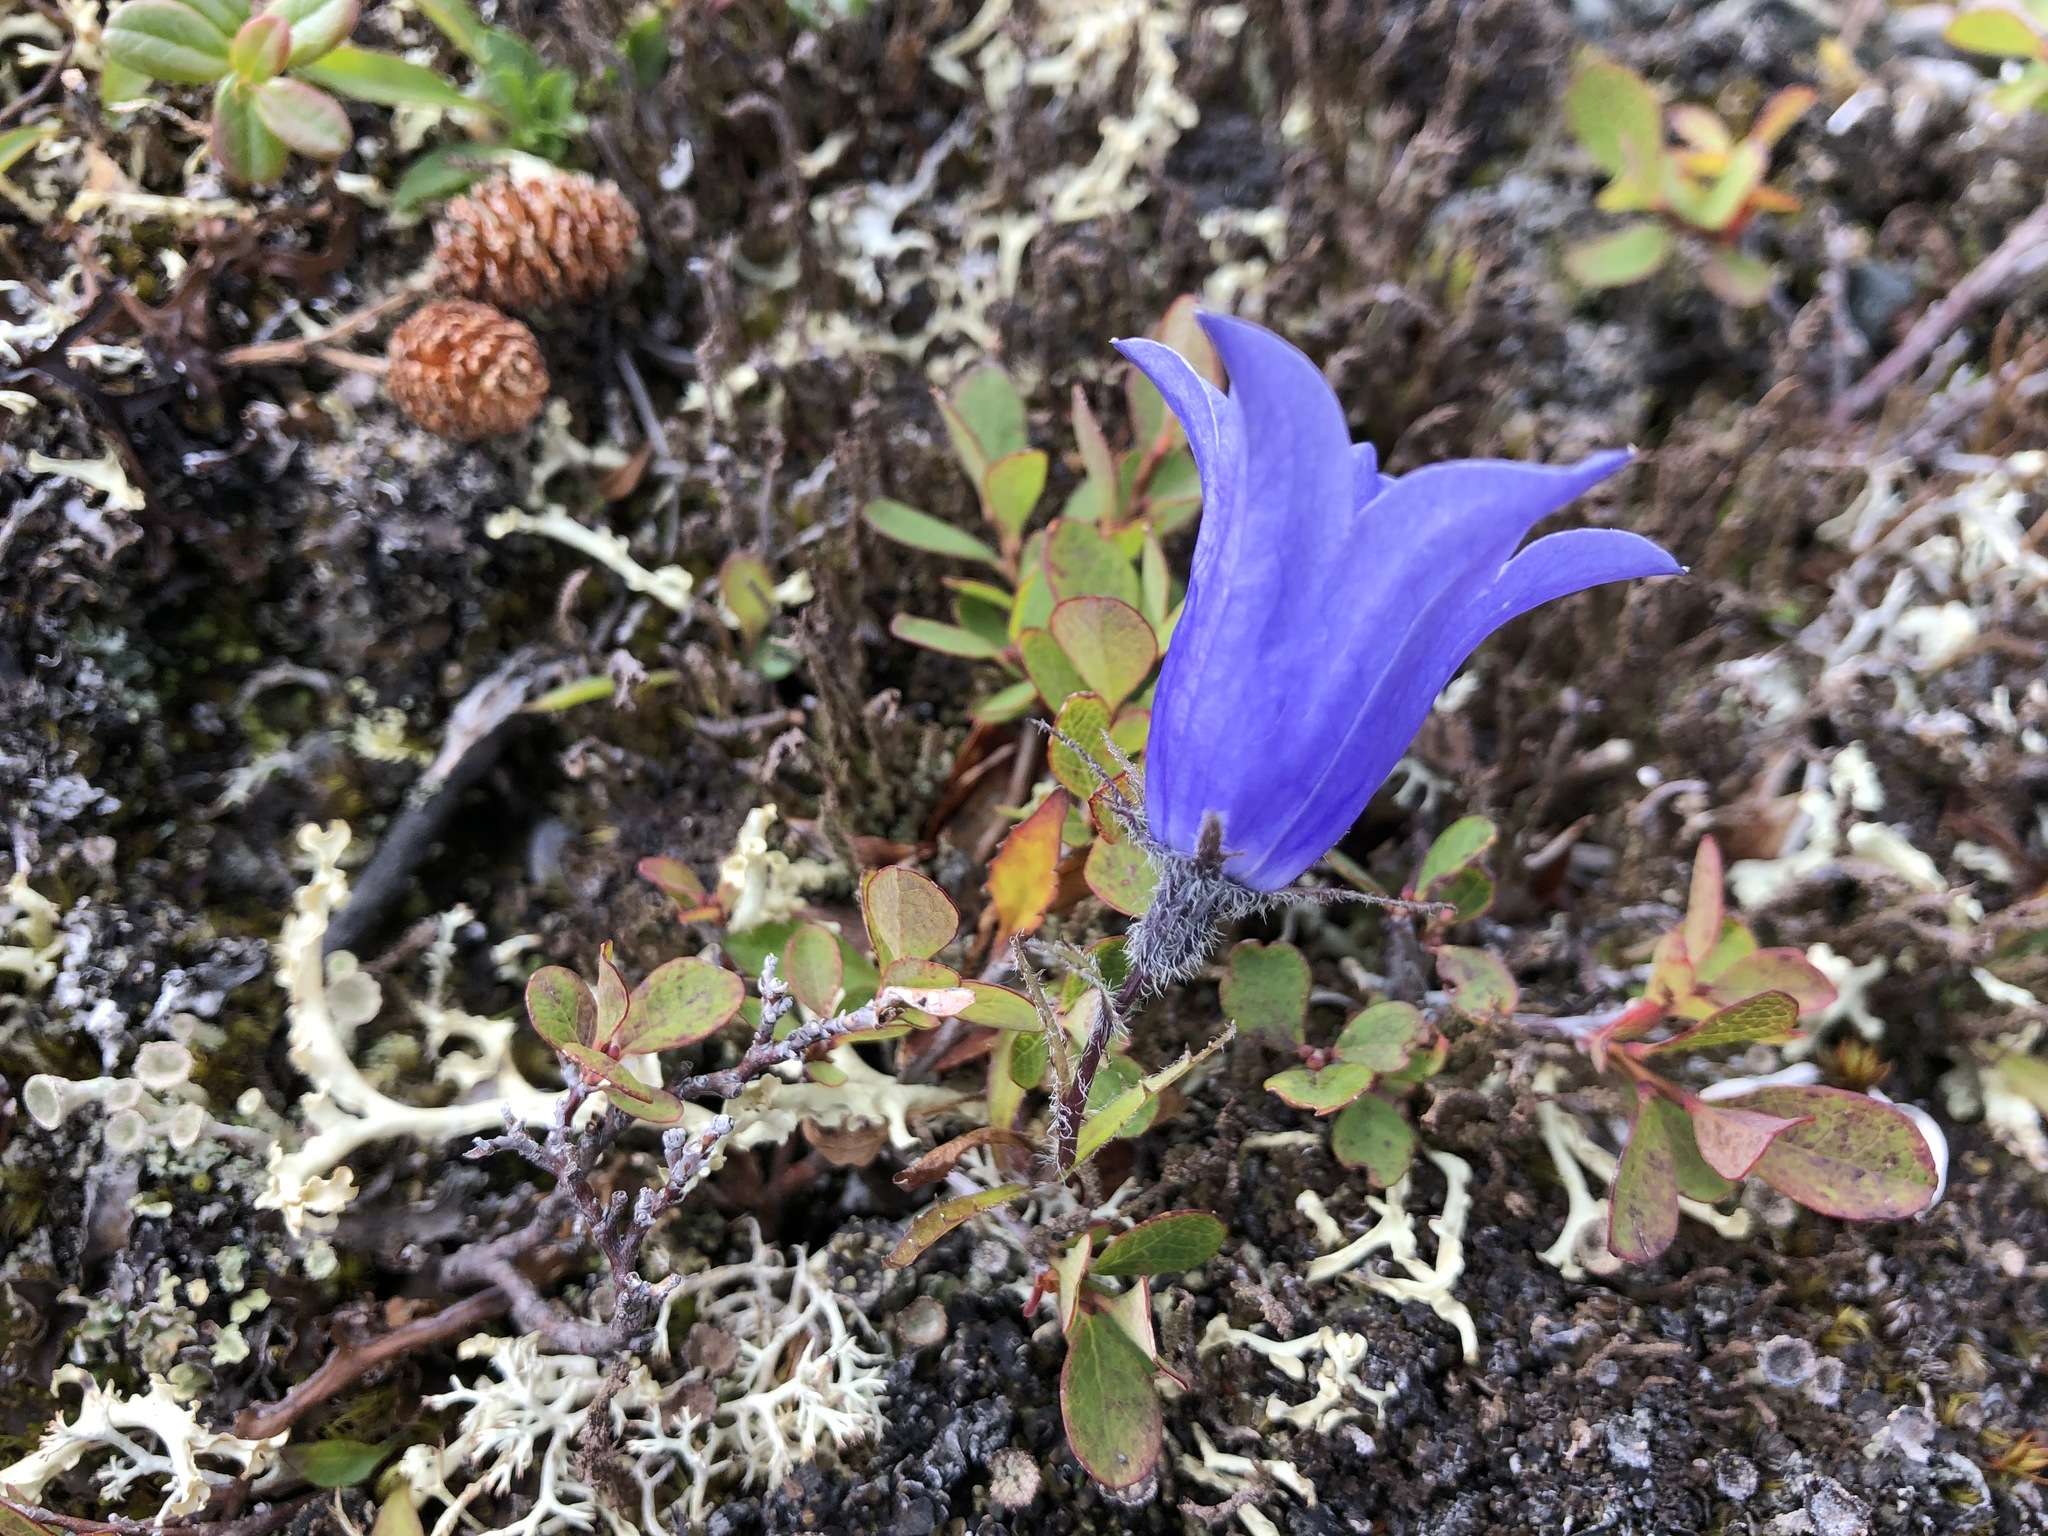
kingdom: Plantae
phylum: Tracheophyta
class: Magnoliopsida
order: Asterales
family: Campanulaceae
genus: Campanula
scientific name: Campanula lasiocarpa
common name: Mountain harebell
